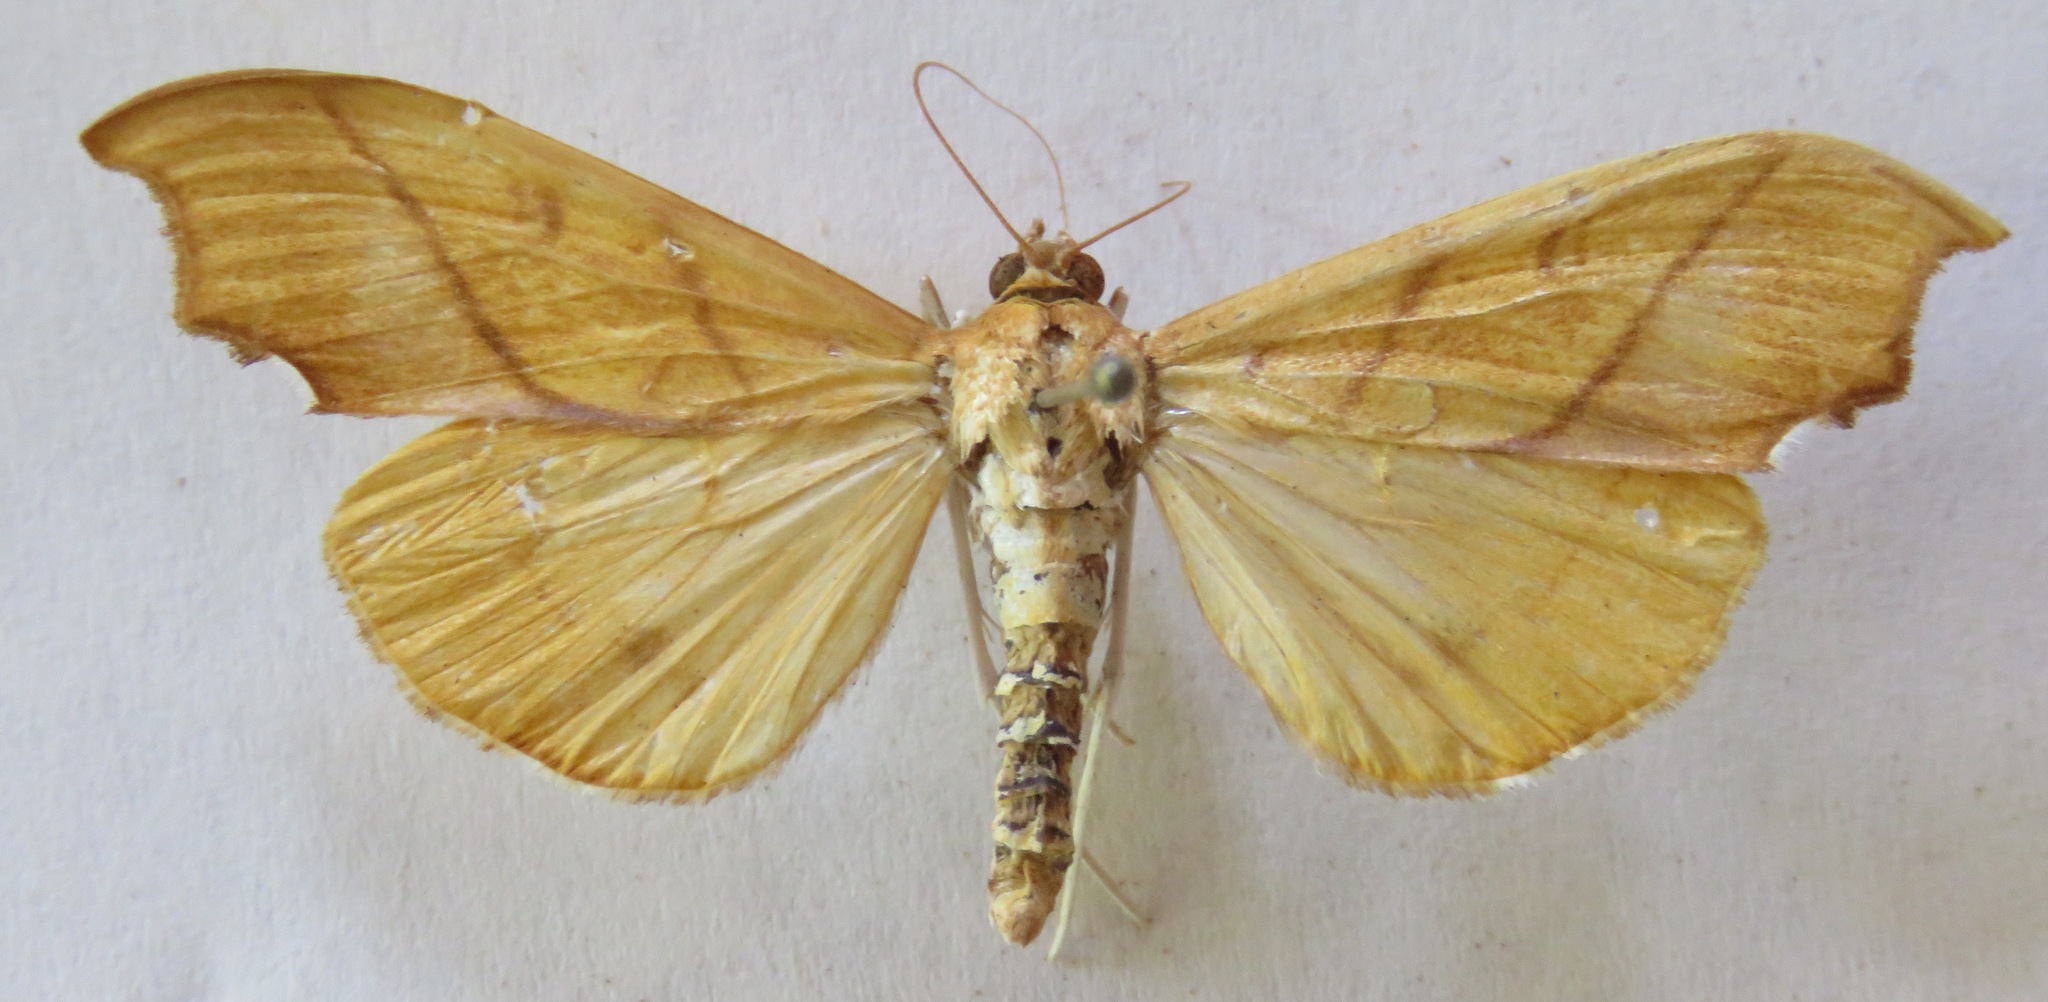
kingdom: Animalia
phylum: Arthropoda
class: Insecta
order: Lepidoptera
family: Crambidae
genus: Sparagmia
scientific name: Sparagmia gonoptera
